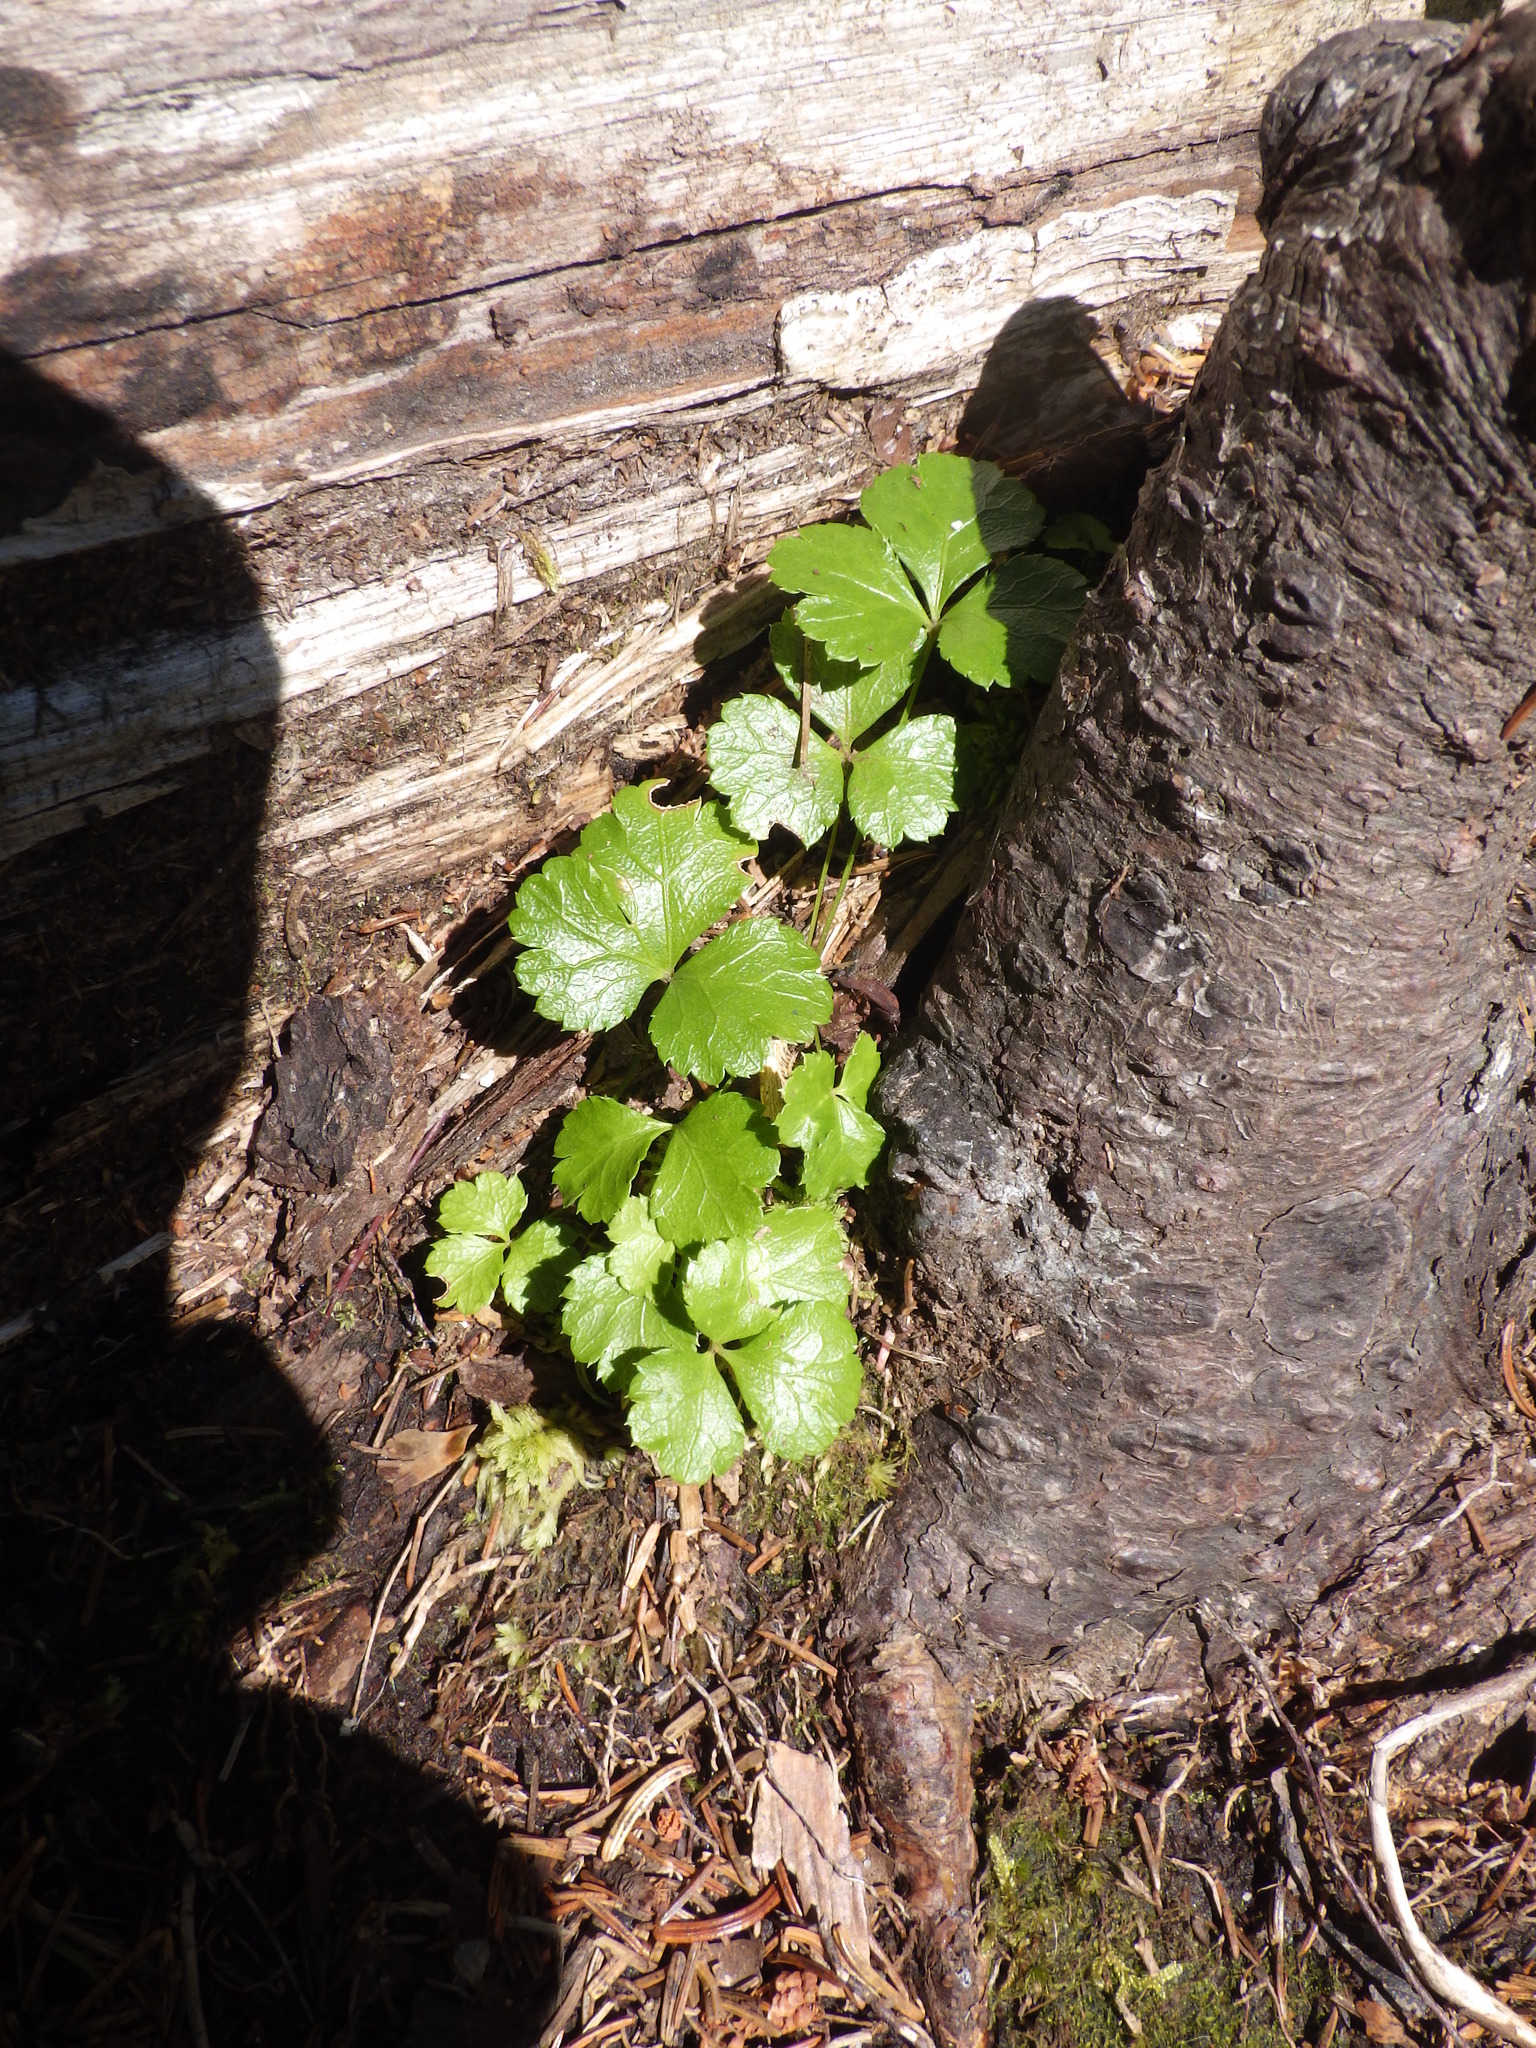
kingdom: Plantae
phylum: Tracheophyta
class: Magnoliopsida
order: Ranunculales
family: Ranunculaceae
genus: Coptis
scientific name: Coptis trifolia
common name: Canker-root
